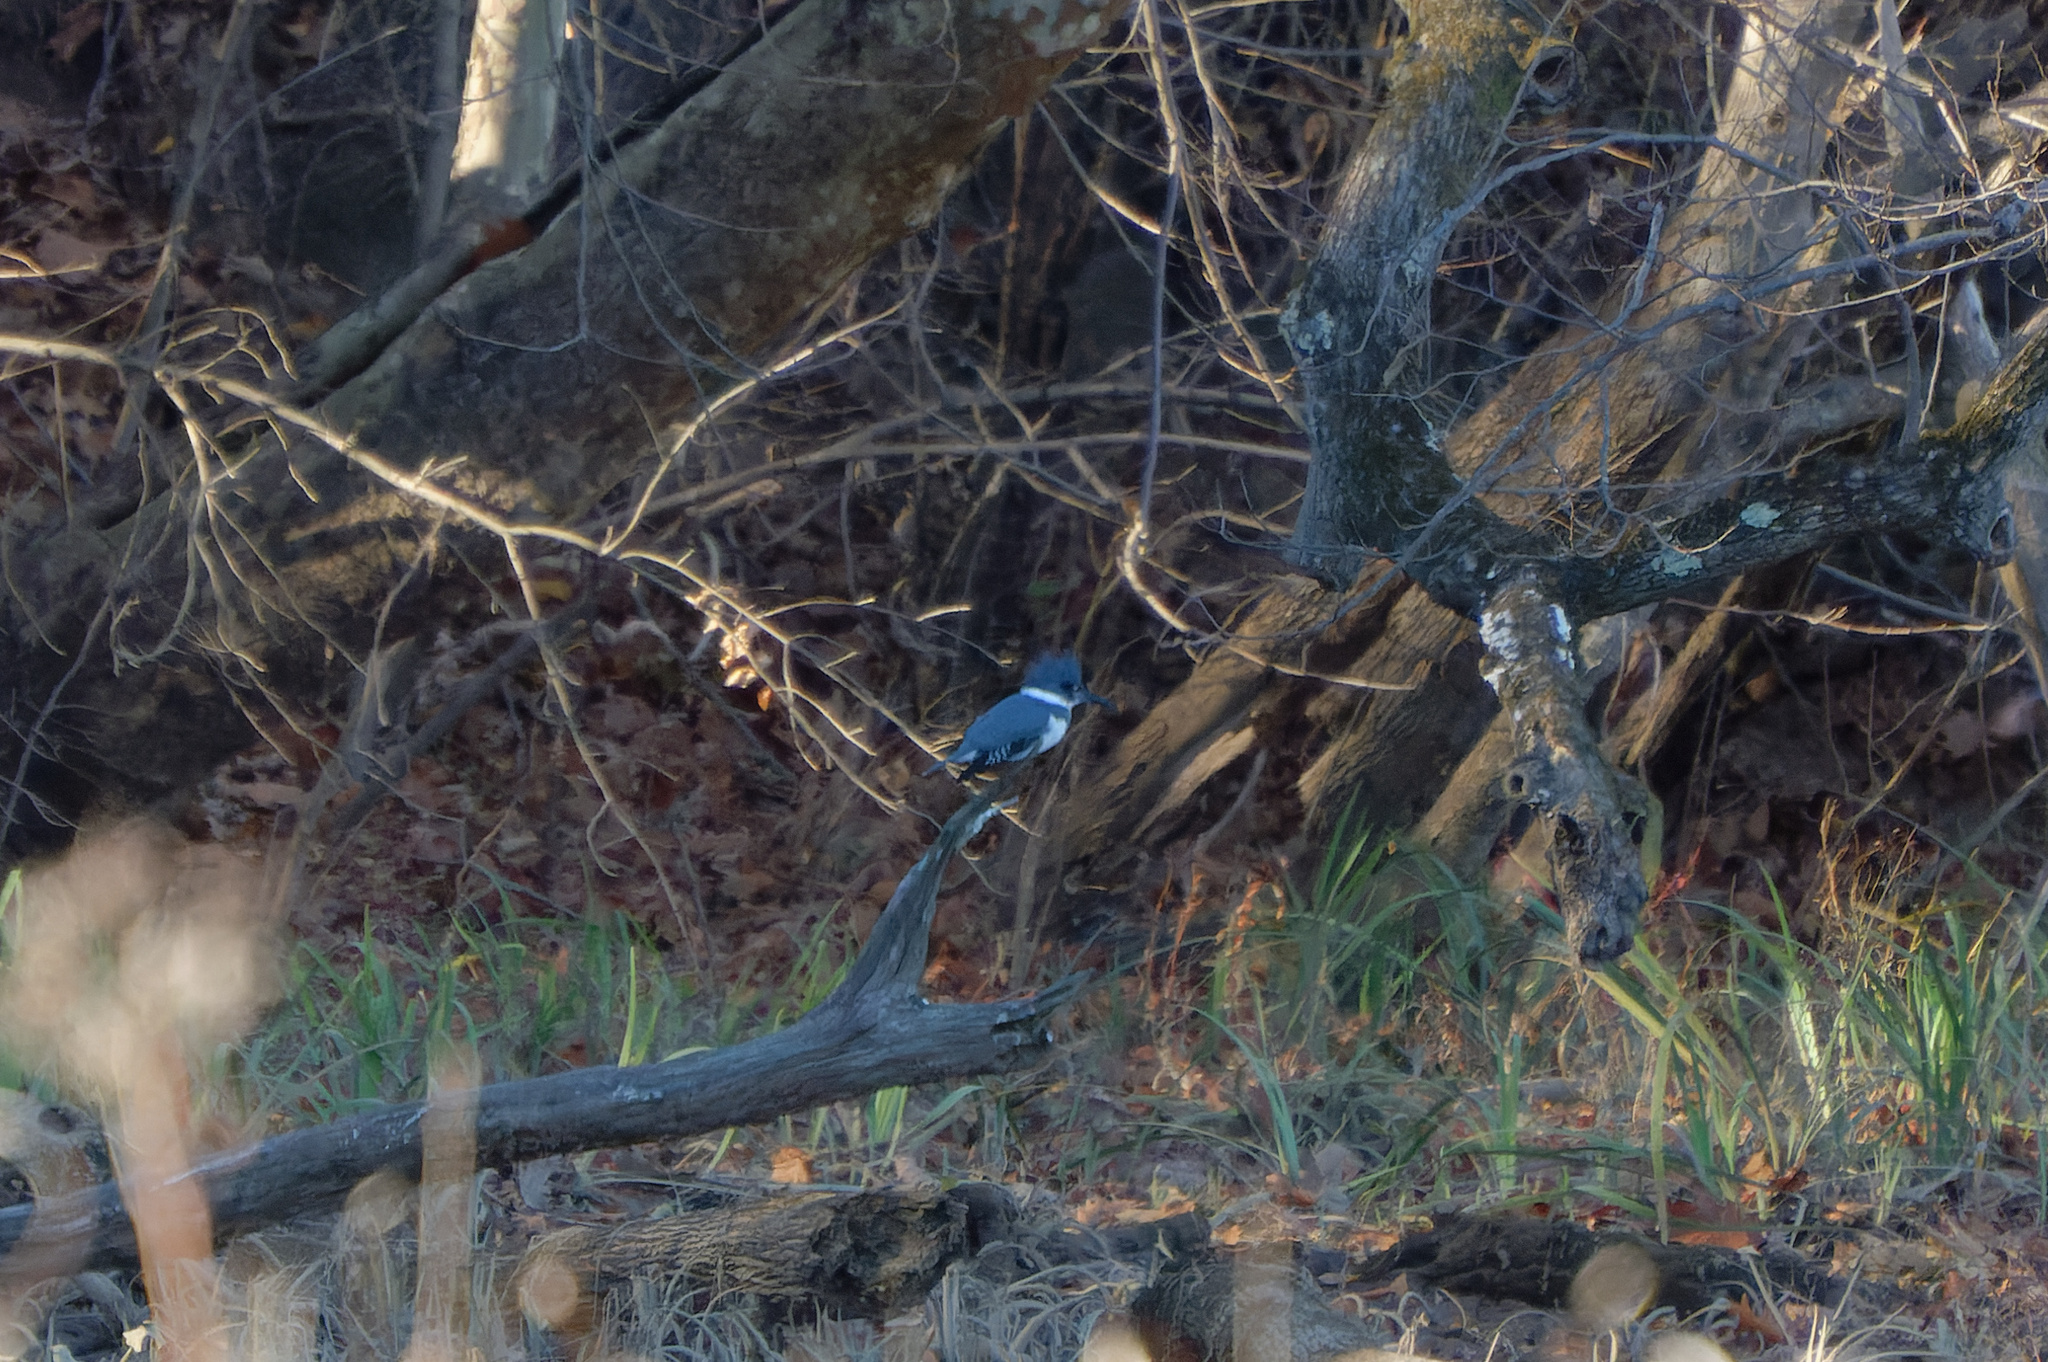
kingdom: Animalia
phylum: Chordata
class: Aves
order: Coraciiformes
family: Alcedinidae
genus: Megaceryle
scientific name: Megaceryle alcyon
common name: Belted kingfisher
